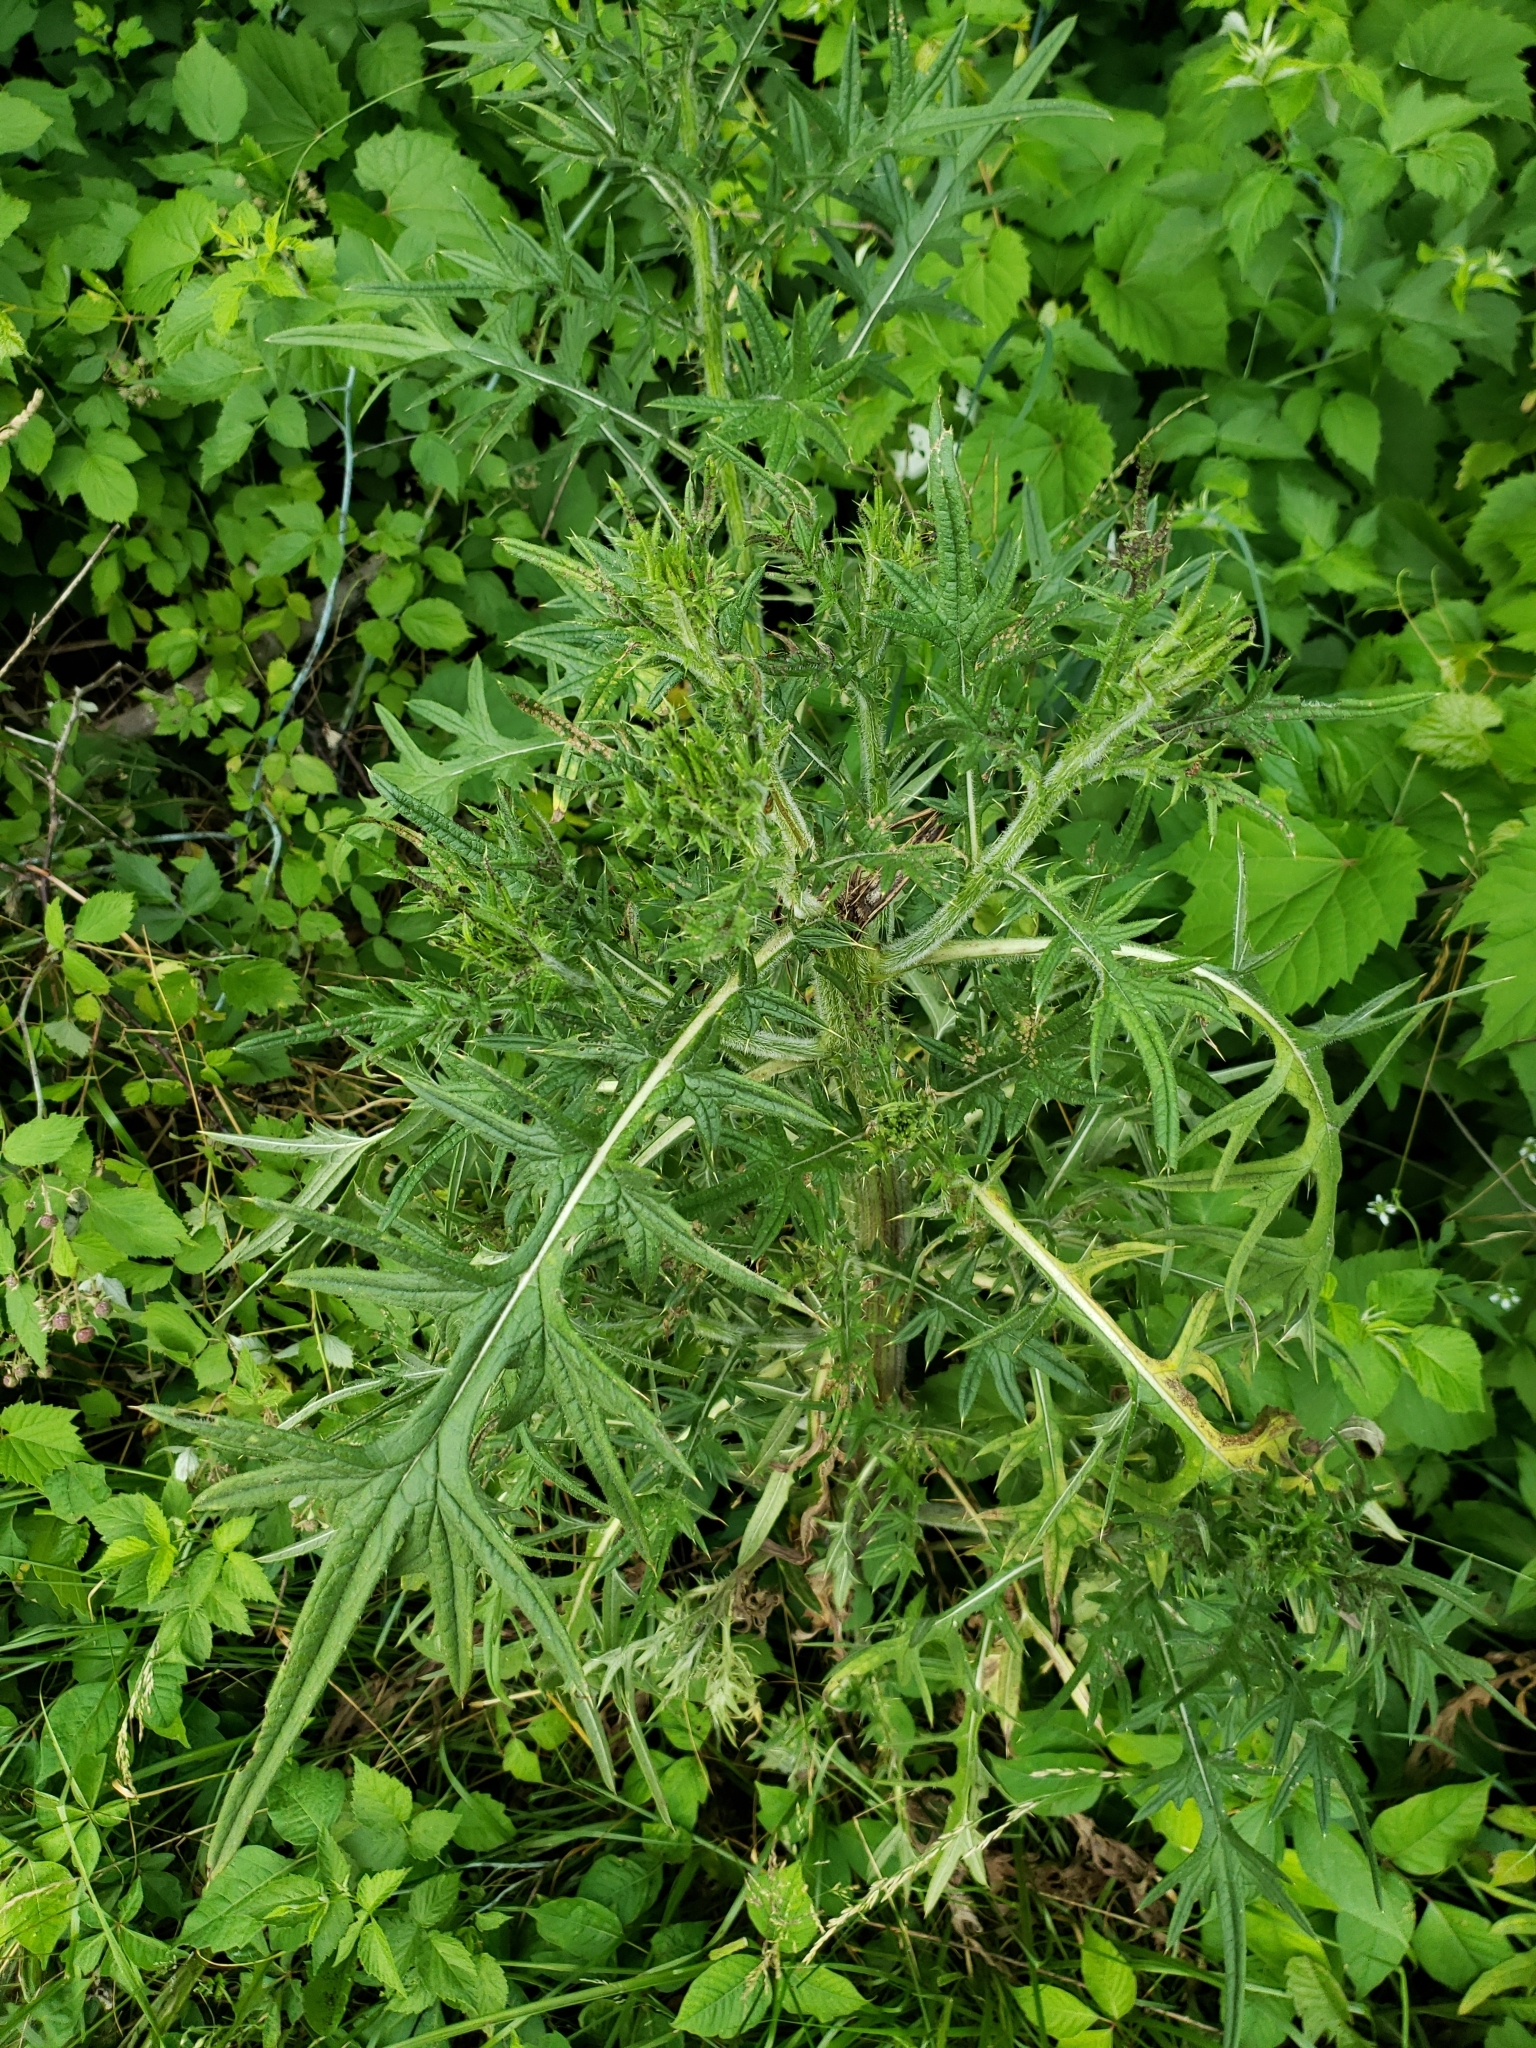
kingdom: Plantae
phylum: Tracheophyta
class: Magnoliopsida
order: Asterales
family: Asteraceae
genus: Cirsium
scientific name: Cirsium vulgare
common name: Bull thistle
